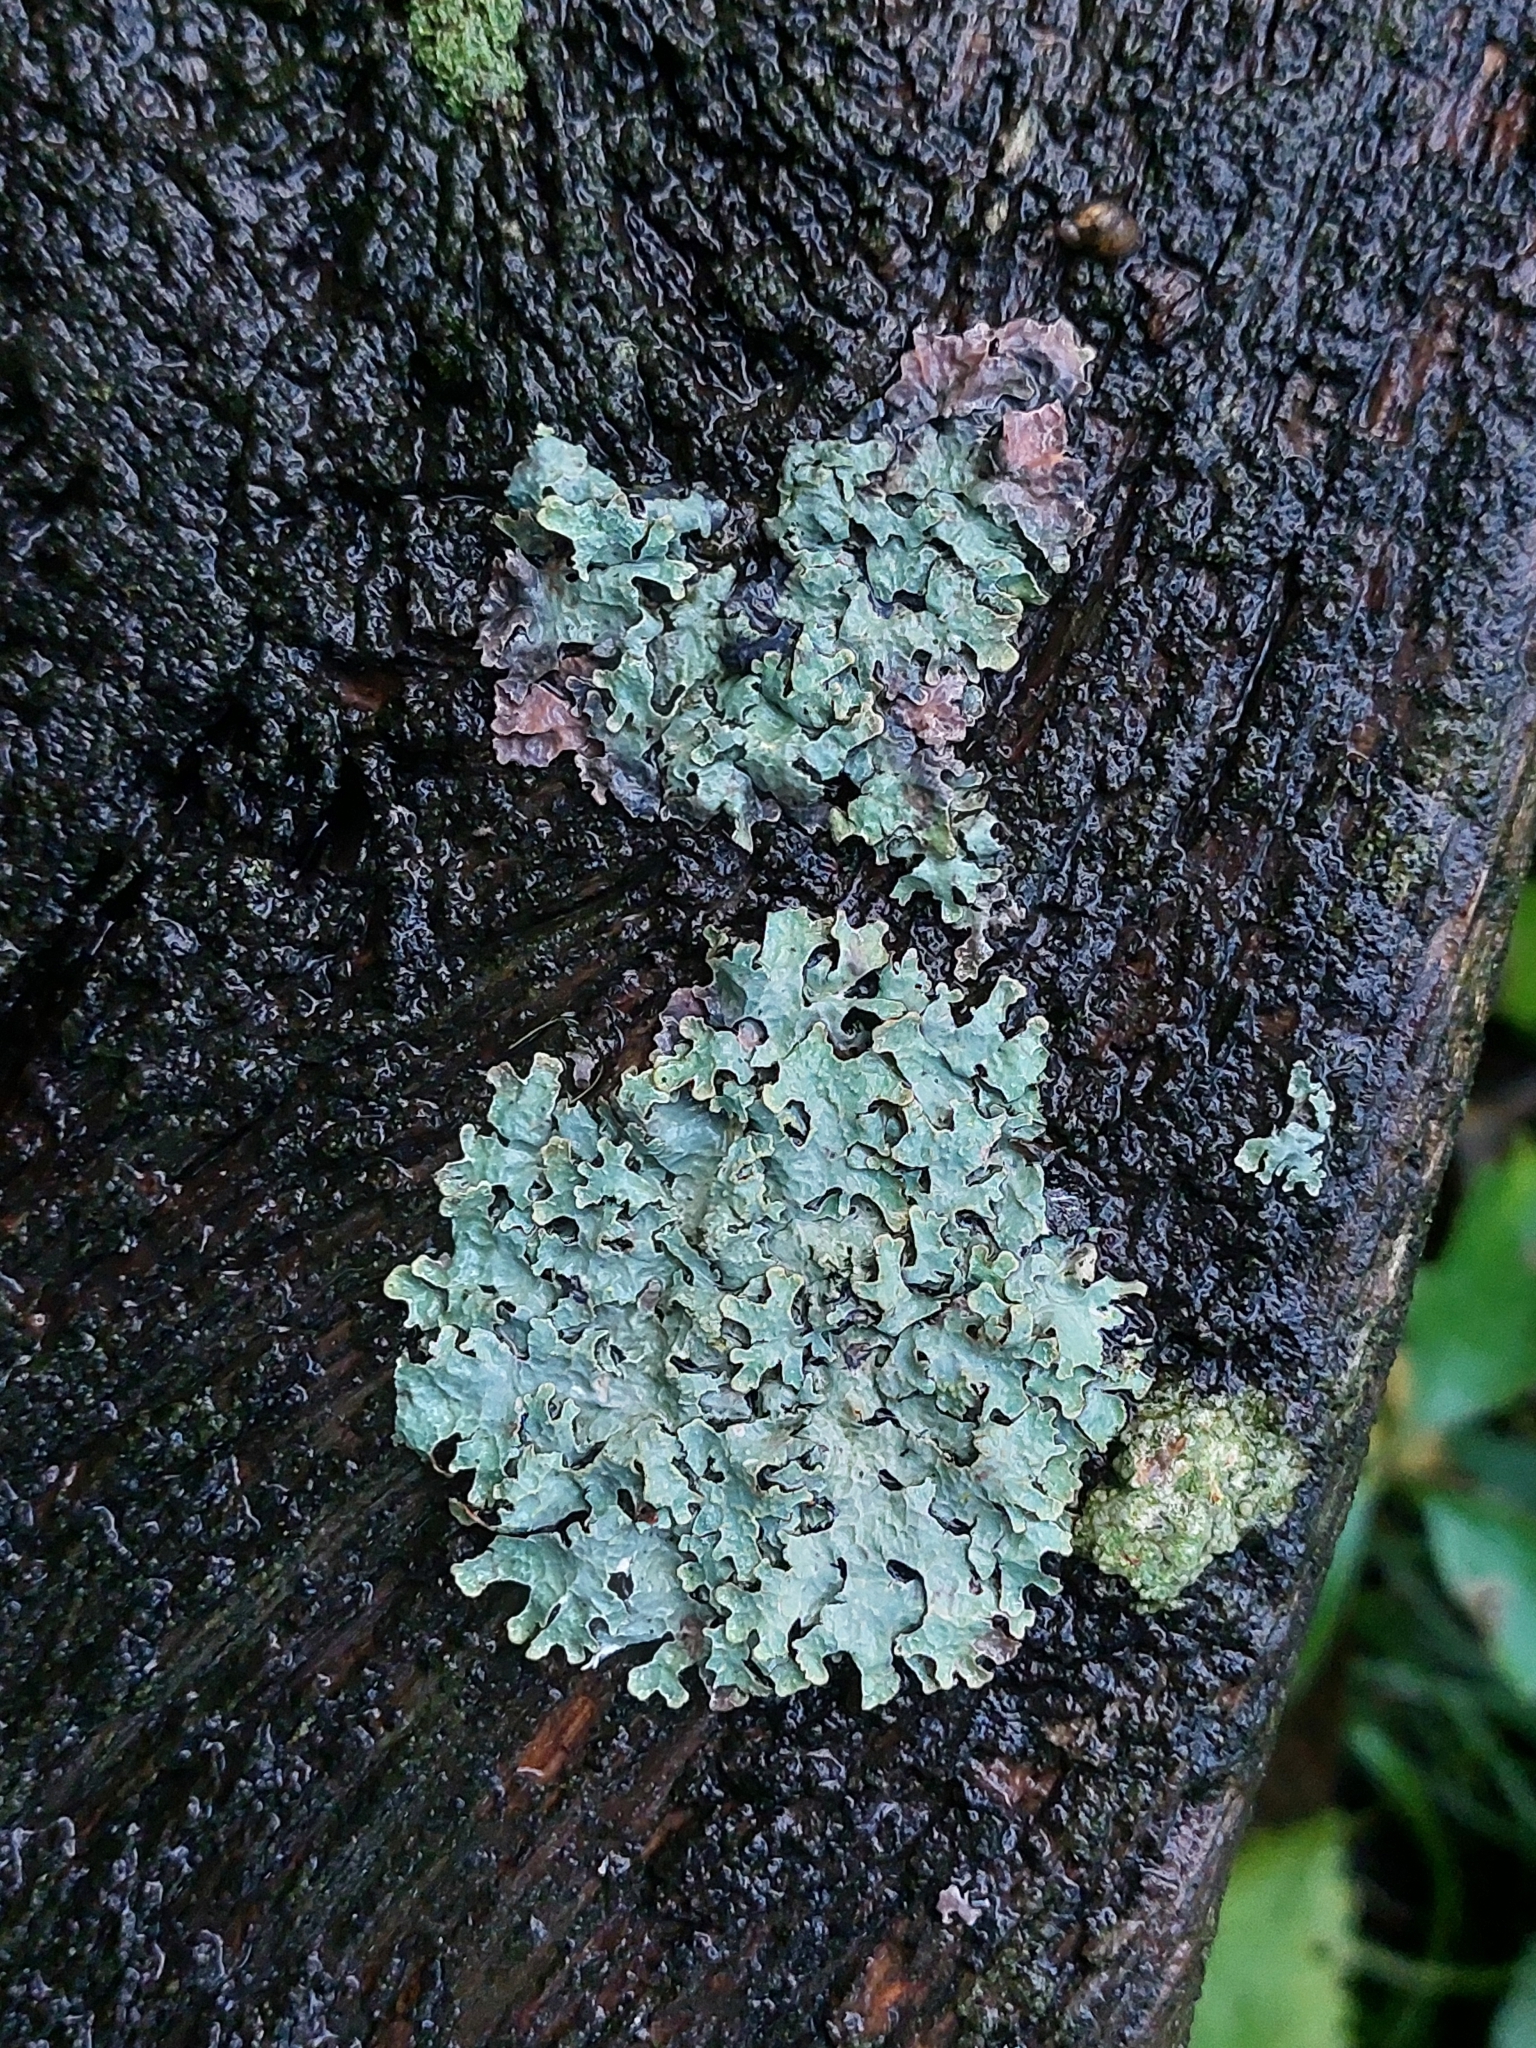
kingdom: Fungi
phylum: Ascomycota
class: Lecanoromycetes
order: Lecanorales
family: Parmeliaceae
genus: Parmelia
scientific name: Parmelia sulcata
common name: Netted shield lichen
